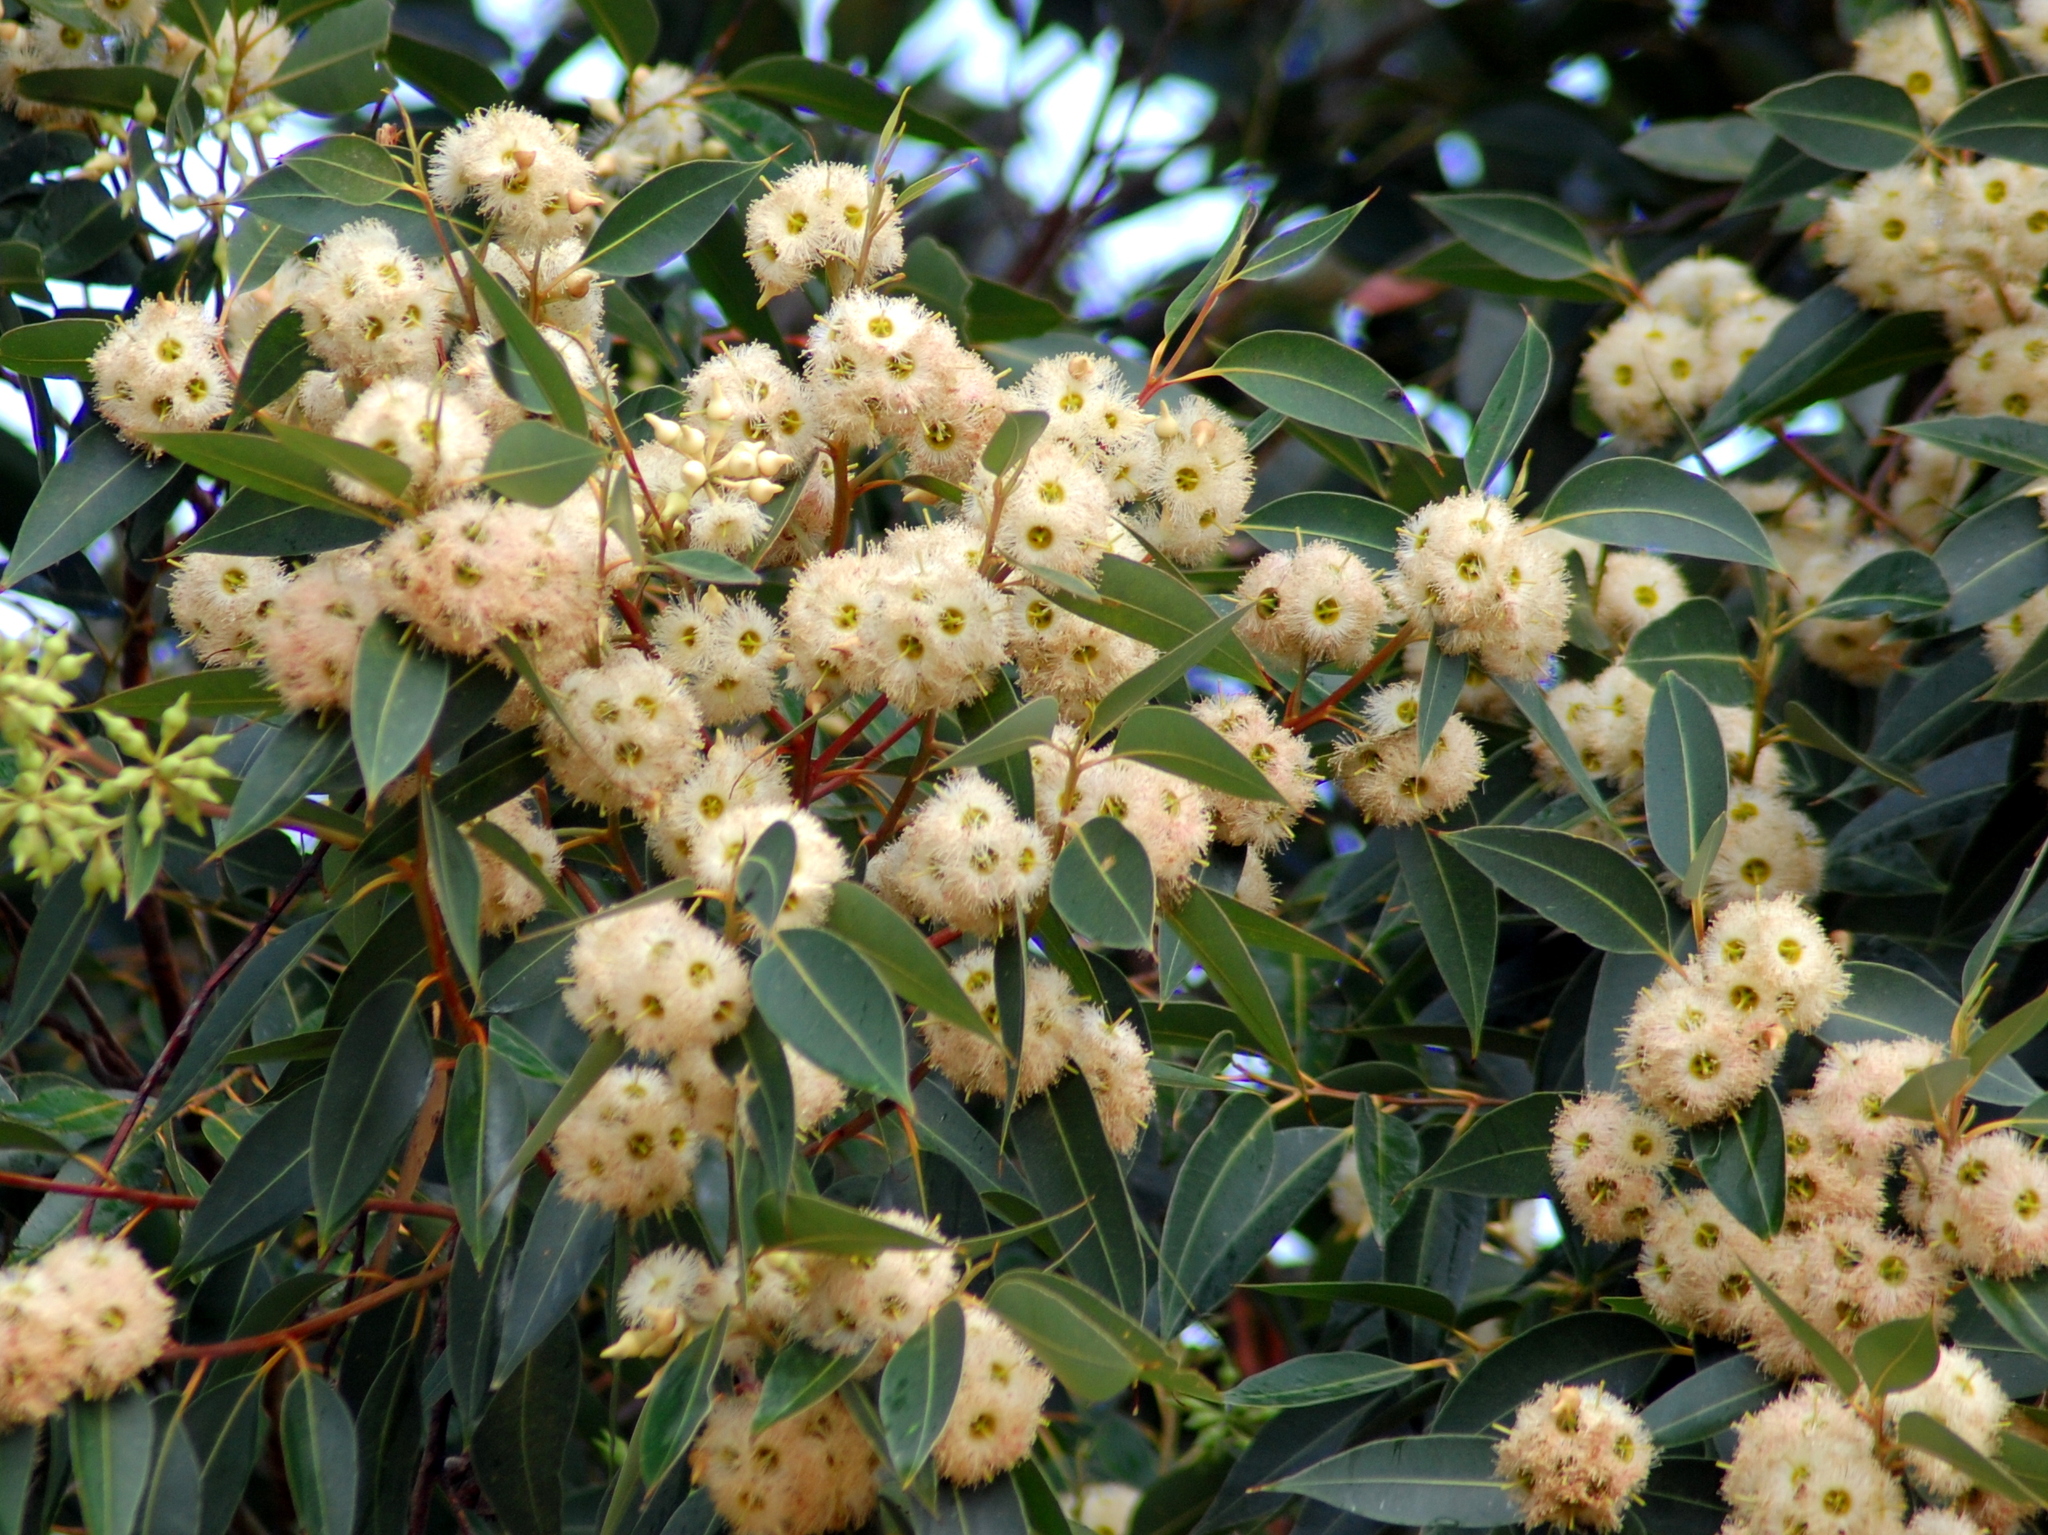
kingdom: Plantae
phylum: Tracheophyta
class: Magnoliopsida
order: Myrtales
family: Myrtaceae
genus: Eucalyptus
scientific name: Eucalyptus robusta
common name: Swampmahogany
